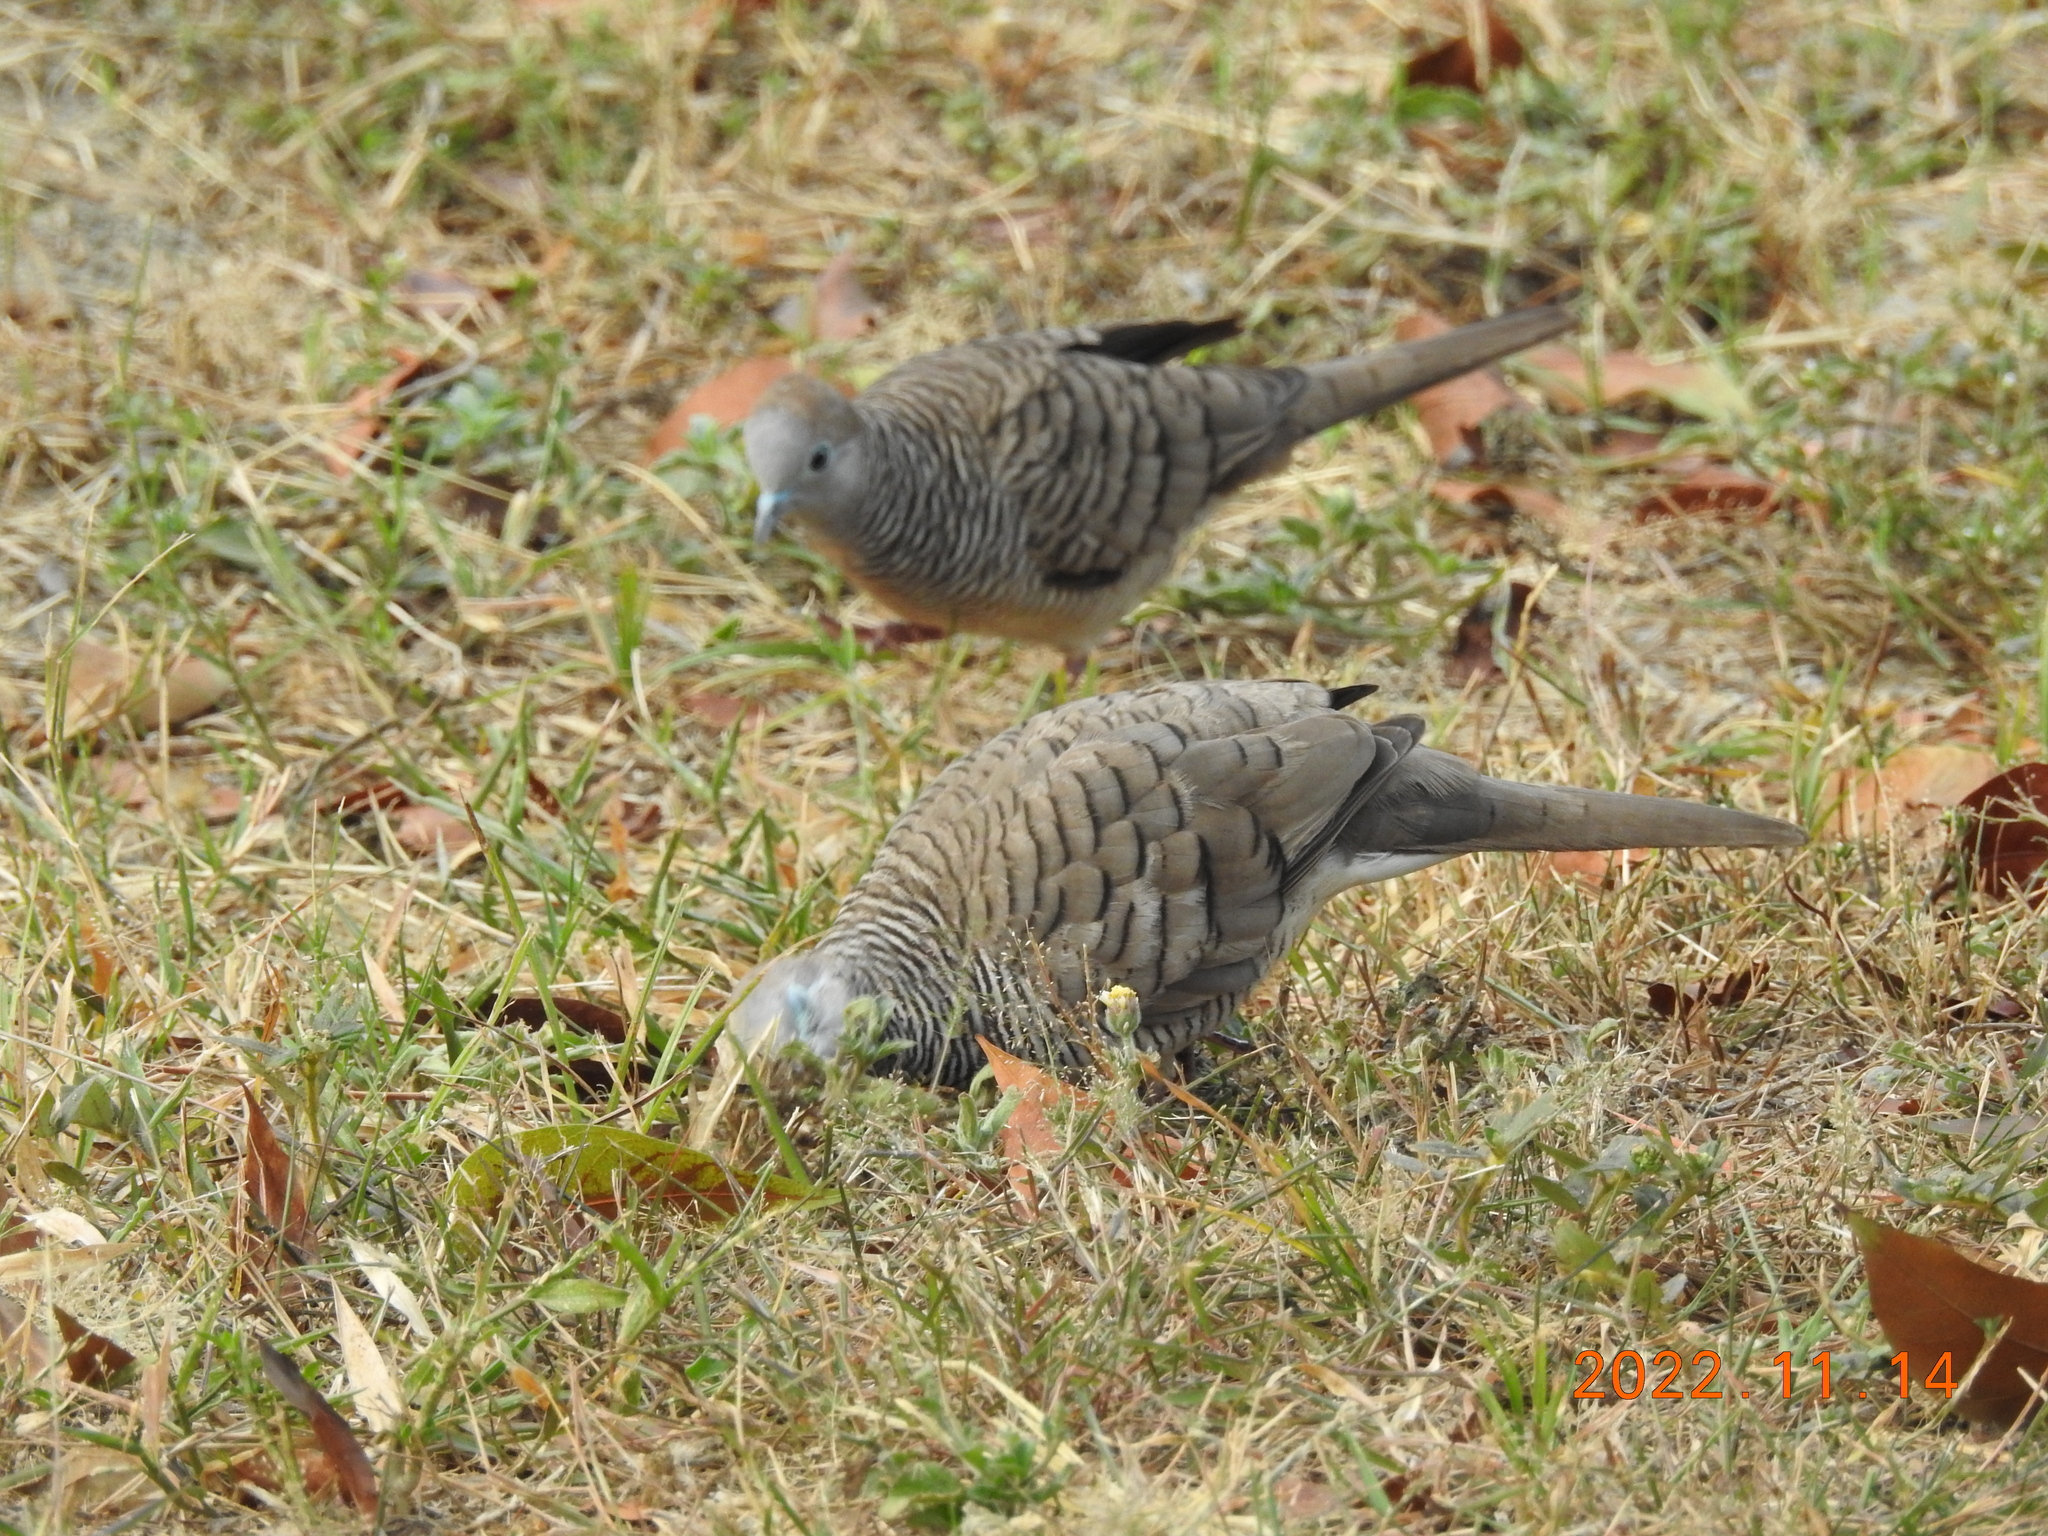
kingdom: Animalia
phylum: Chordata
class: Aves
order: Columbiformes
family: Columbidae
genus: Geopelia
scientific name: Geopelia striata
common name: Zebra dove
